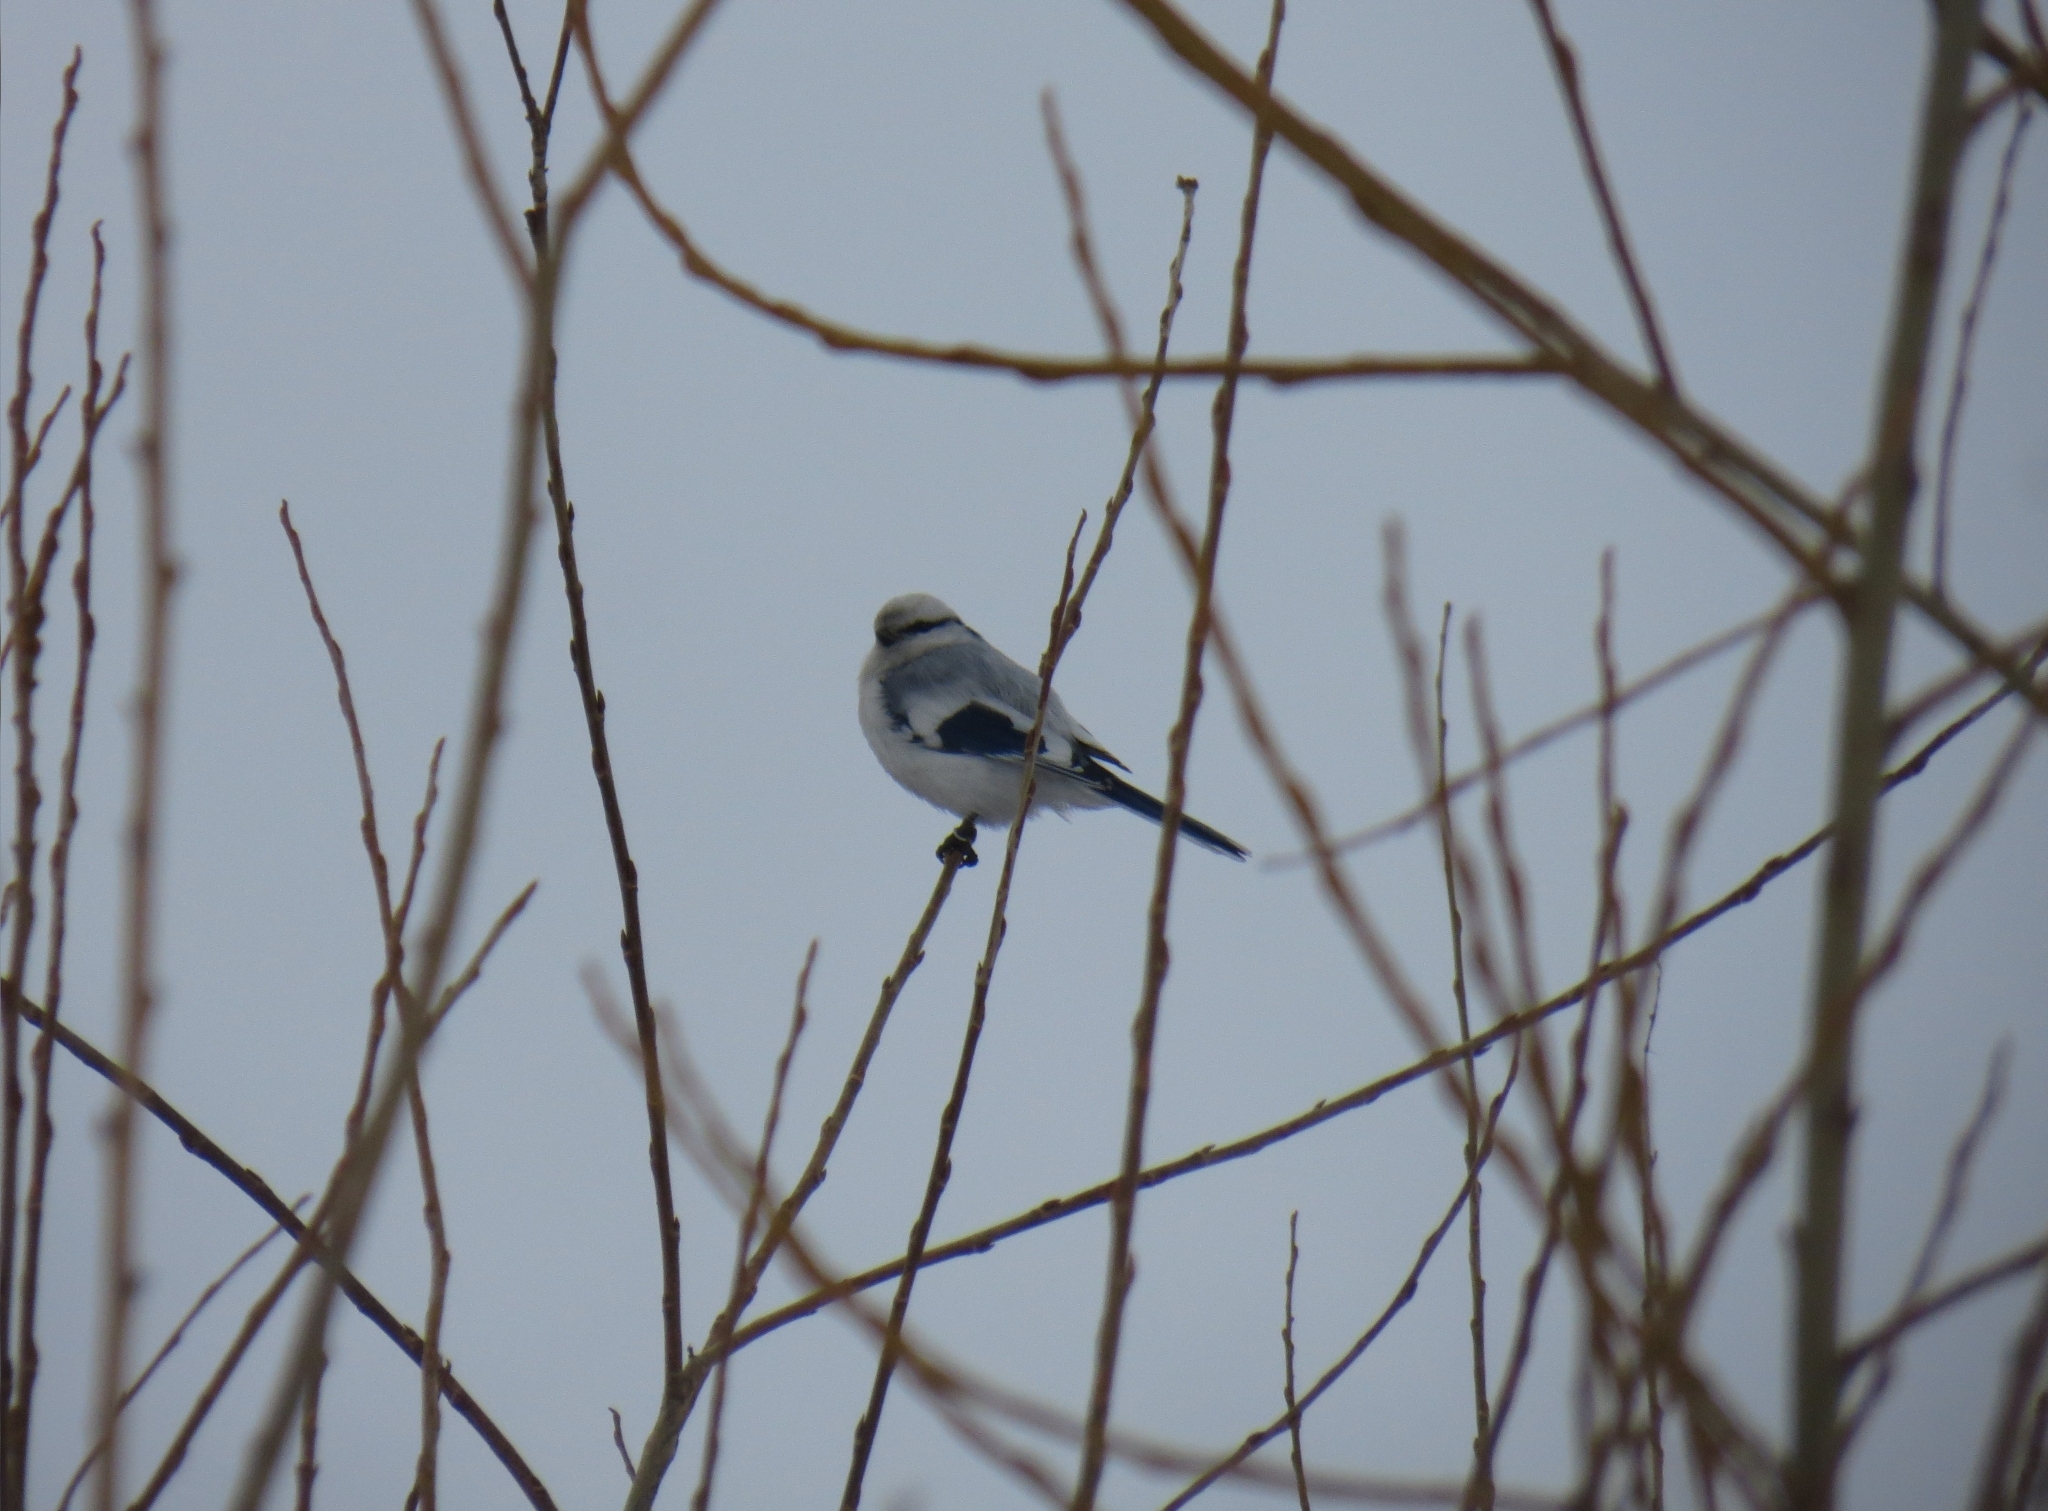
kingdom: Animalia
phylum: Chordata
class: Aves
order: Passeriformes
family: Paridae
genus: Cyanistes
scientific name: Cyanistes cyanus
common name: Azure tit
